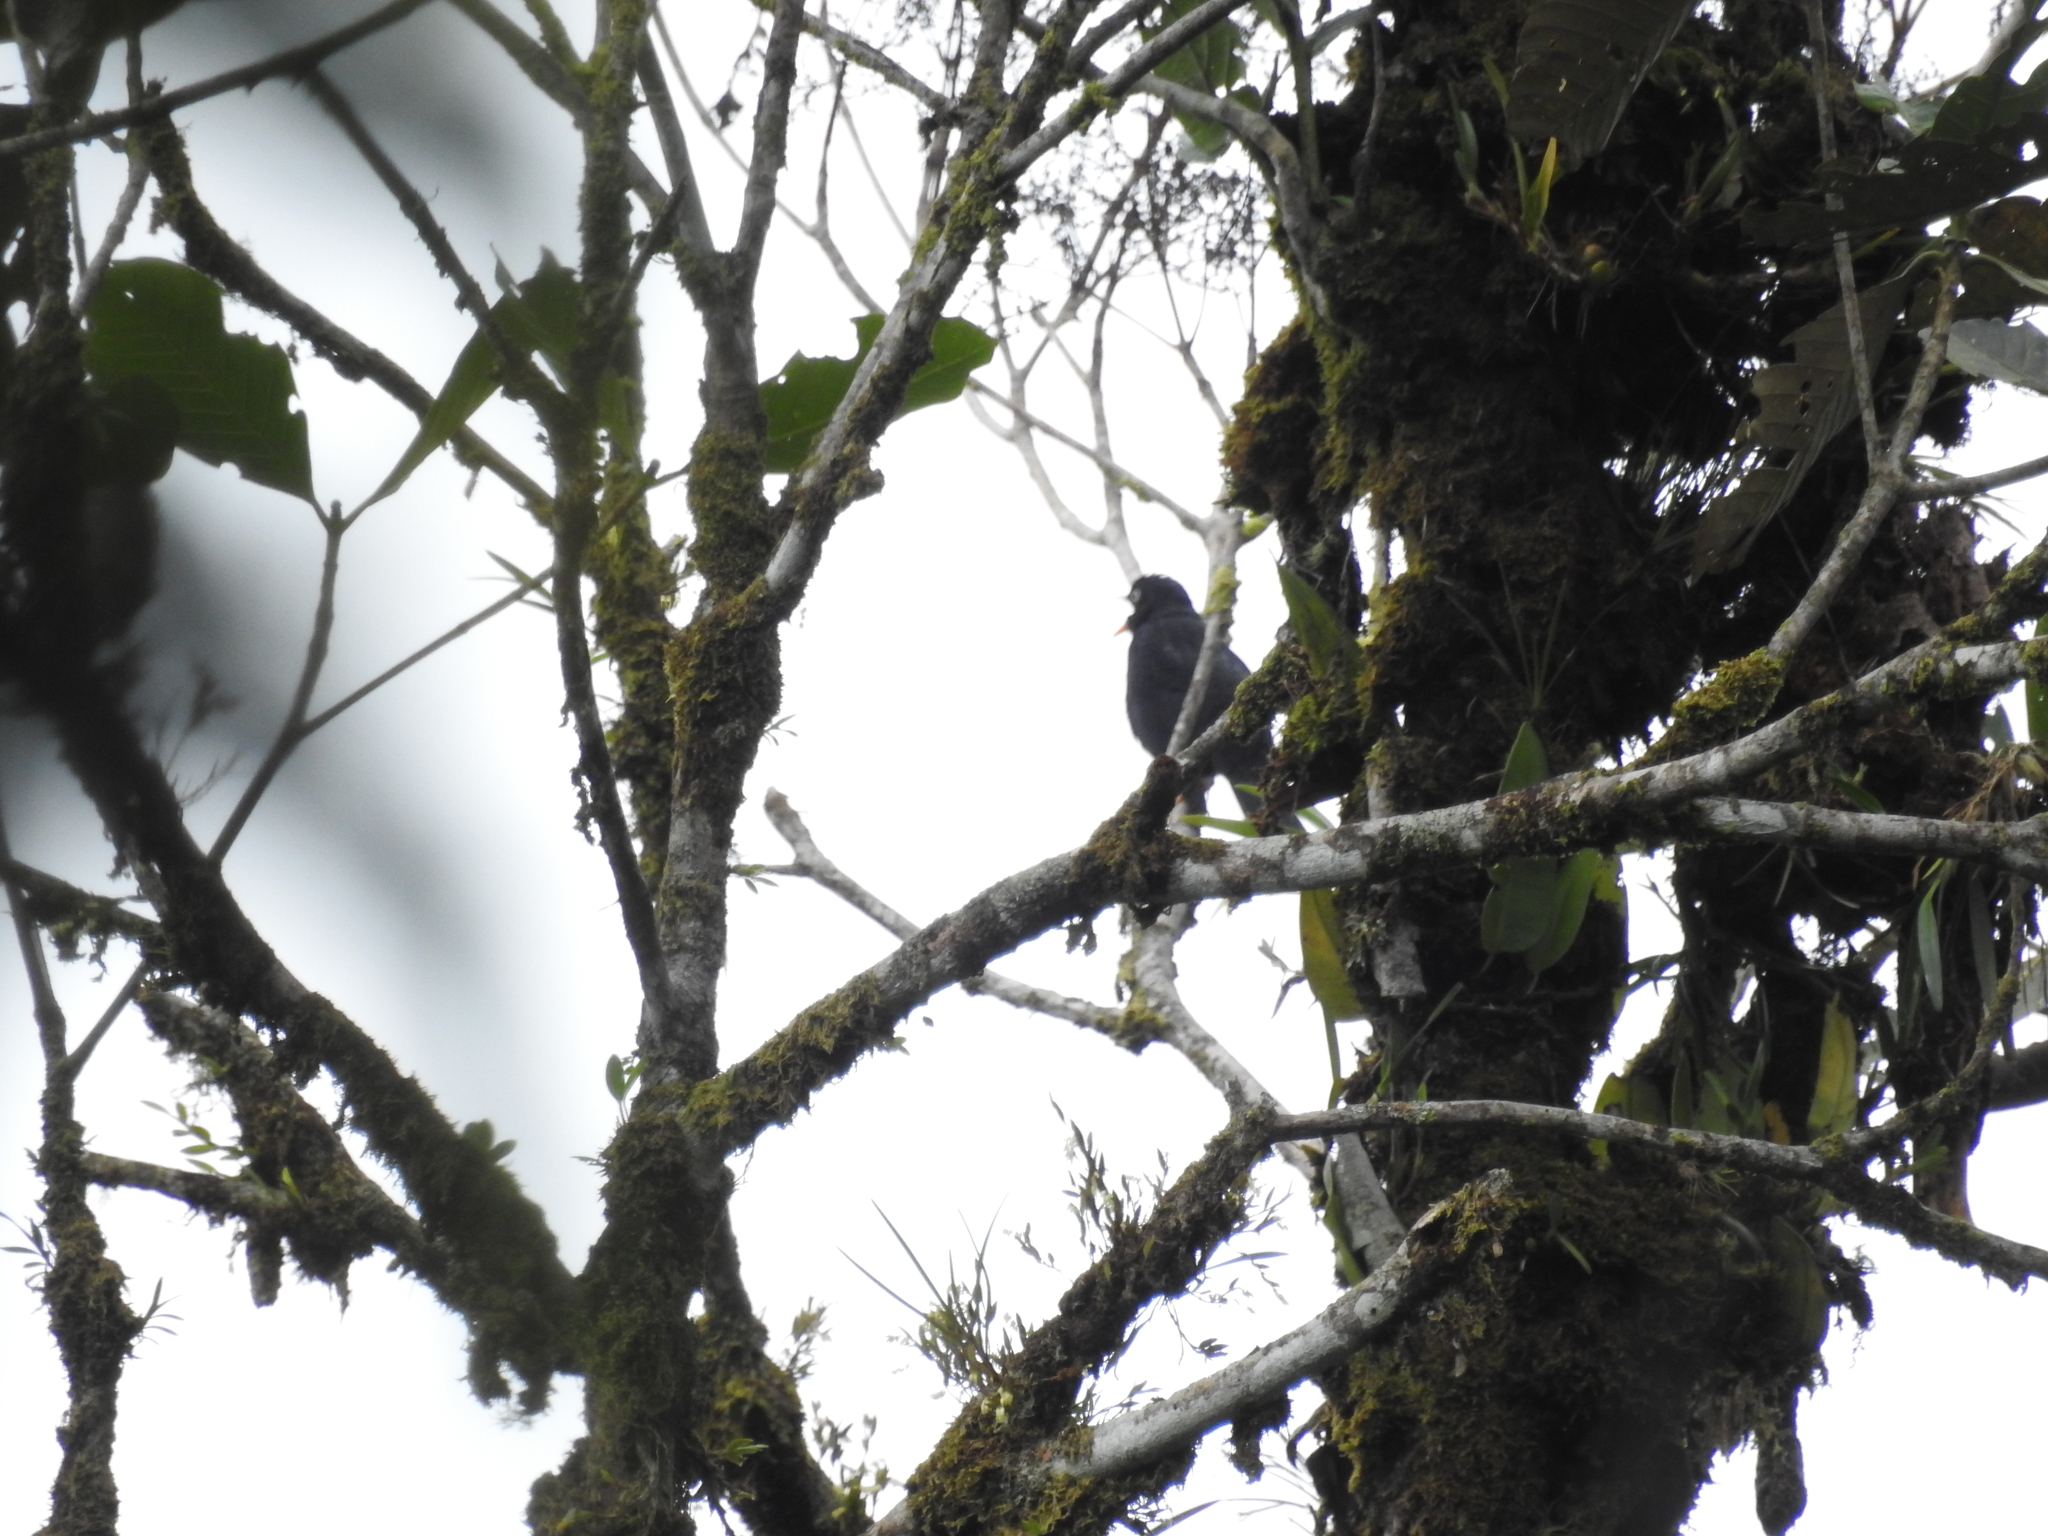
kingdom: Animalia
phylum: Chordata
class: Aves
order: Passeriformes
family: Turdidae
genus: Turdus
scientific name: Turdus leucops
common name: Pale-eyed thrush
